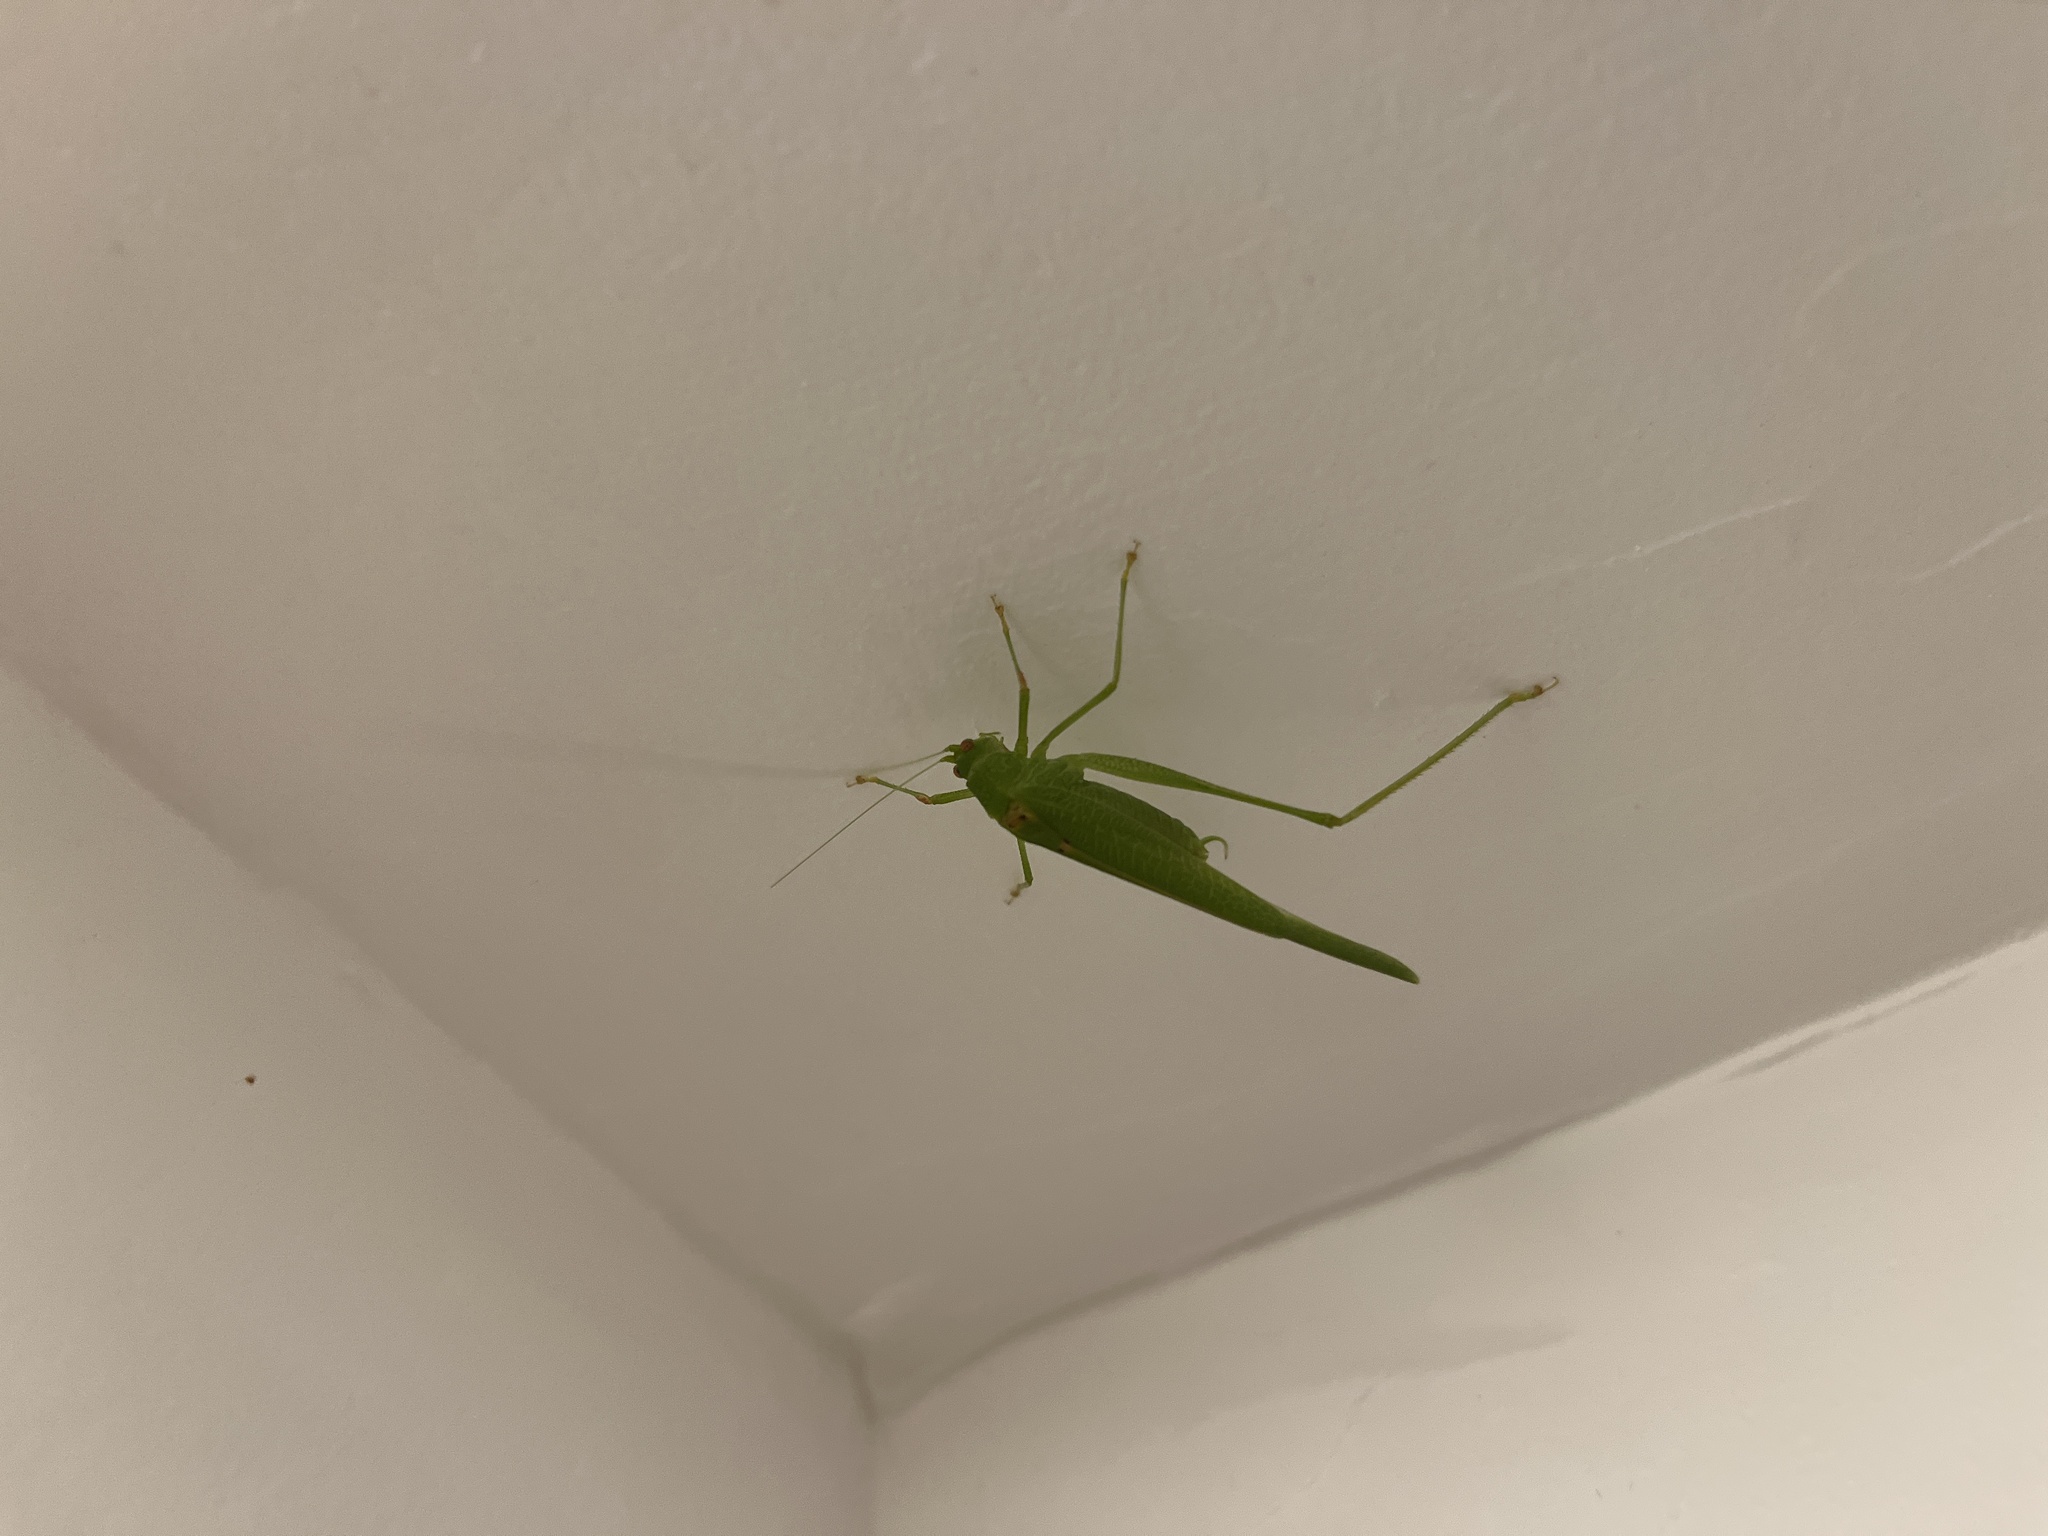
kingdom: Animalia
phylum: Arthropoda
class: Insecta
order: Orthoptera
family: Tettigoniidae
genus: Phaneroptera
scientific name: Phaneroptera nana
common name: Southern sickle bush-cricket
